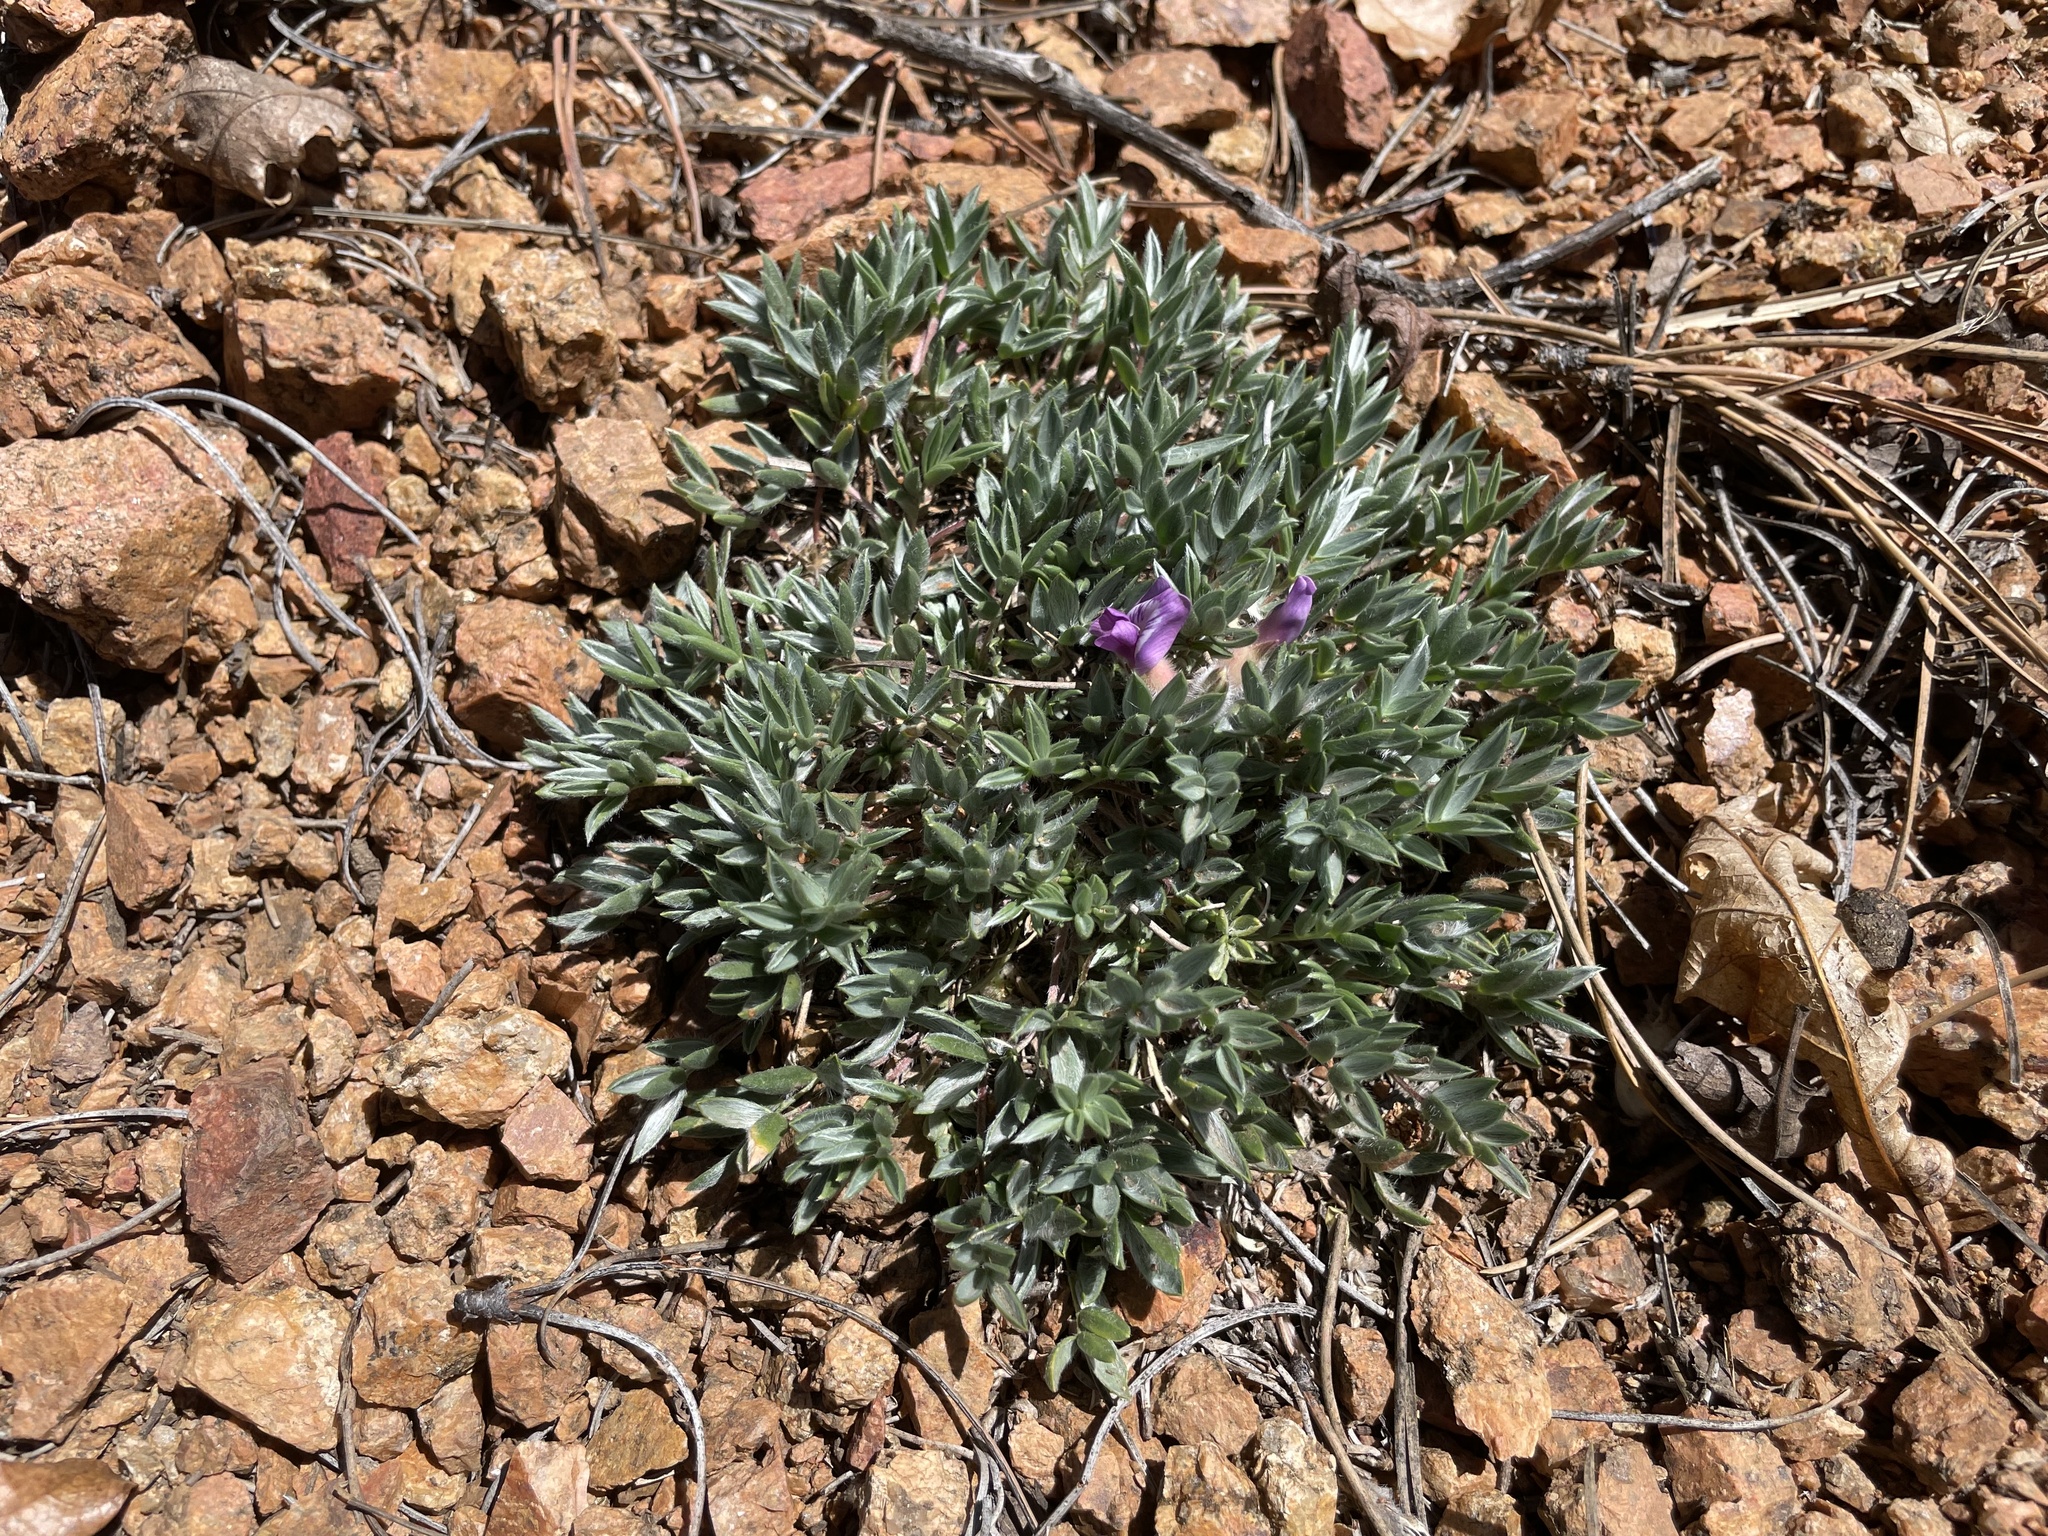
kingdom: Plantae
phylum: Tracheophyta
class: Magnoliopsida
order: Fabales
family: Fabaceae
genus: Oxytropis
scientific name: Oxytropis multiceps
